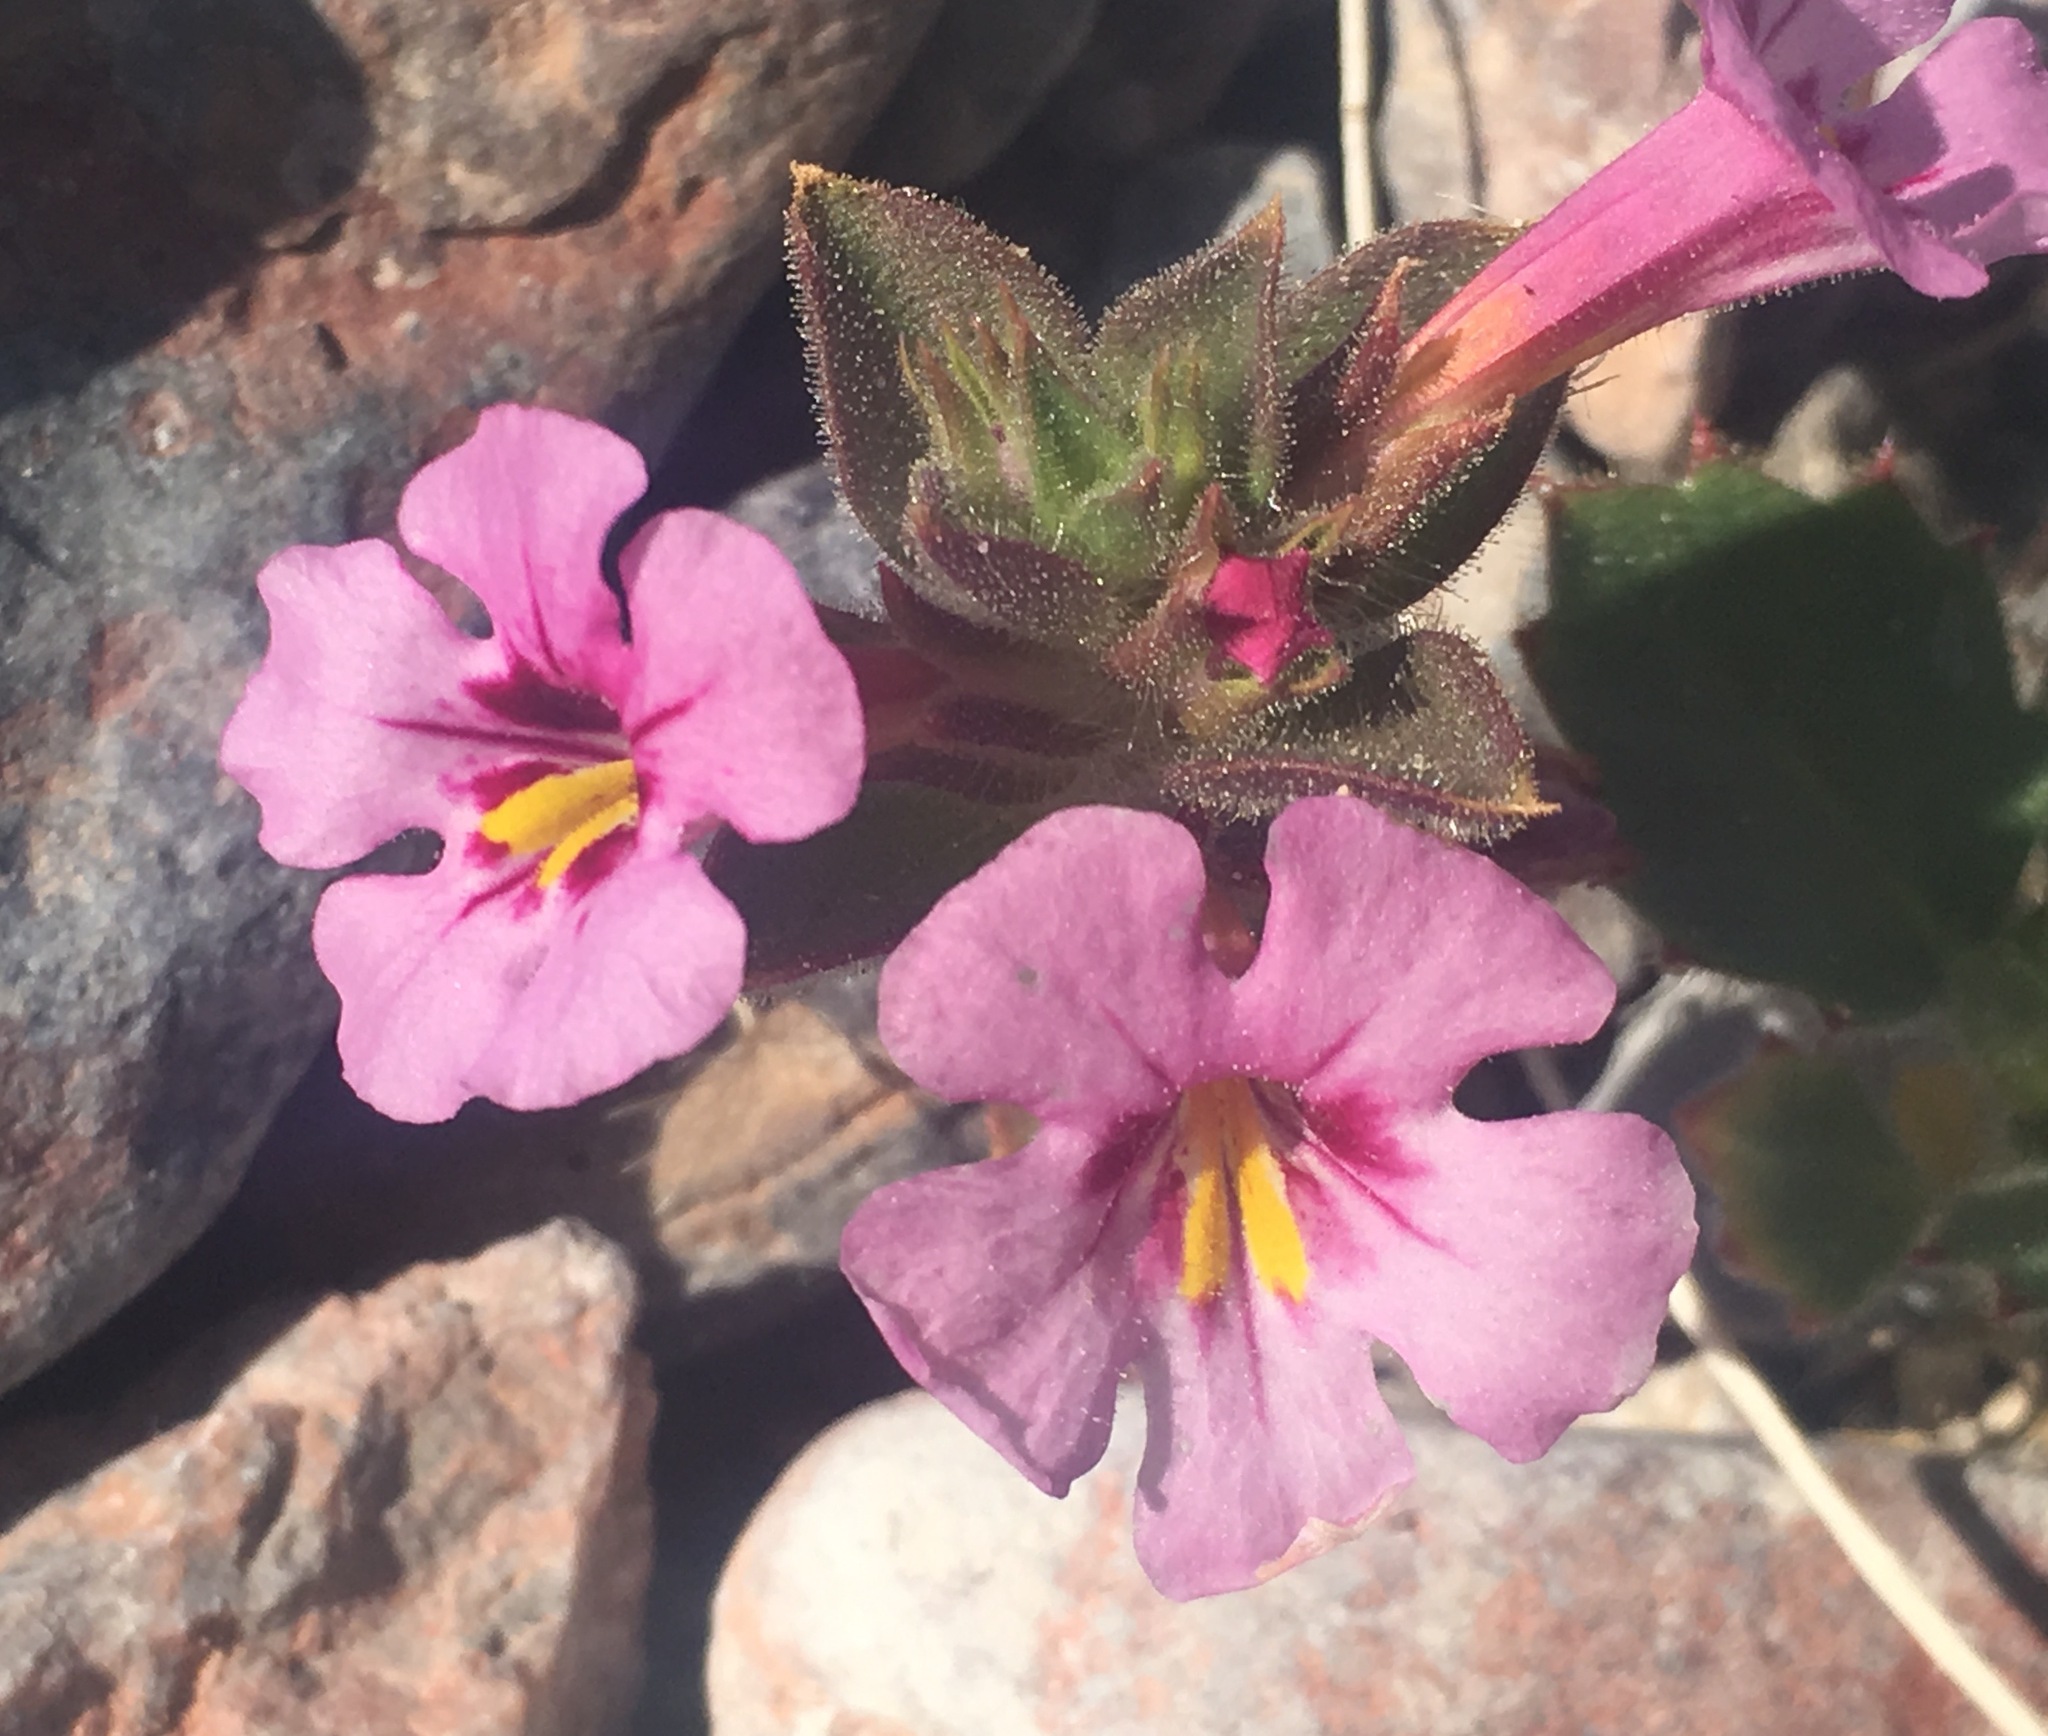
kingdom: Plantae
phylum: Tracheophyta
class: Magnoliopsida
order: Lamiales
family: Phrymaceae
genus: Diplacus
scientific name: Diplacus bigelovii
